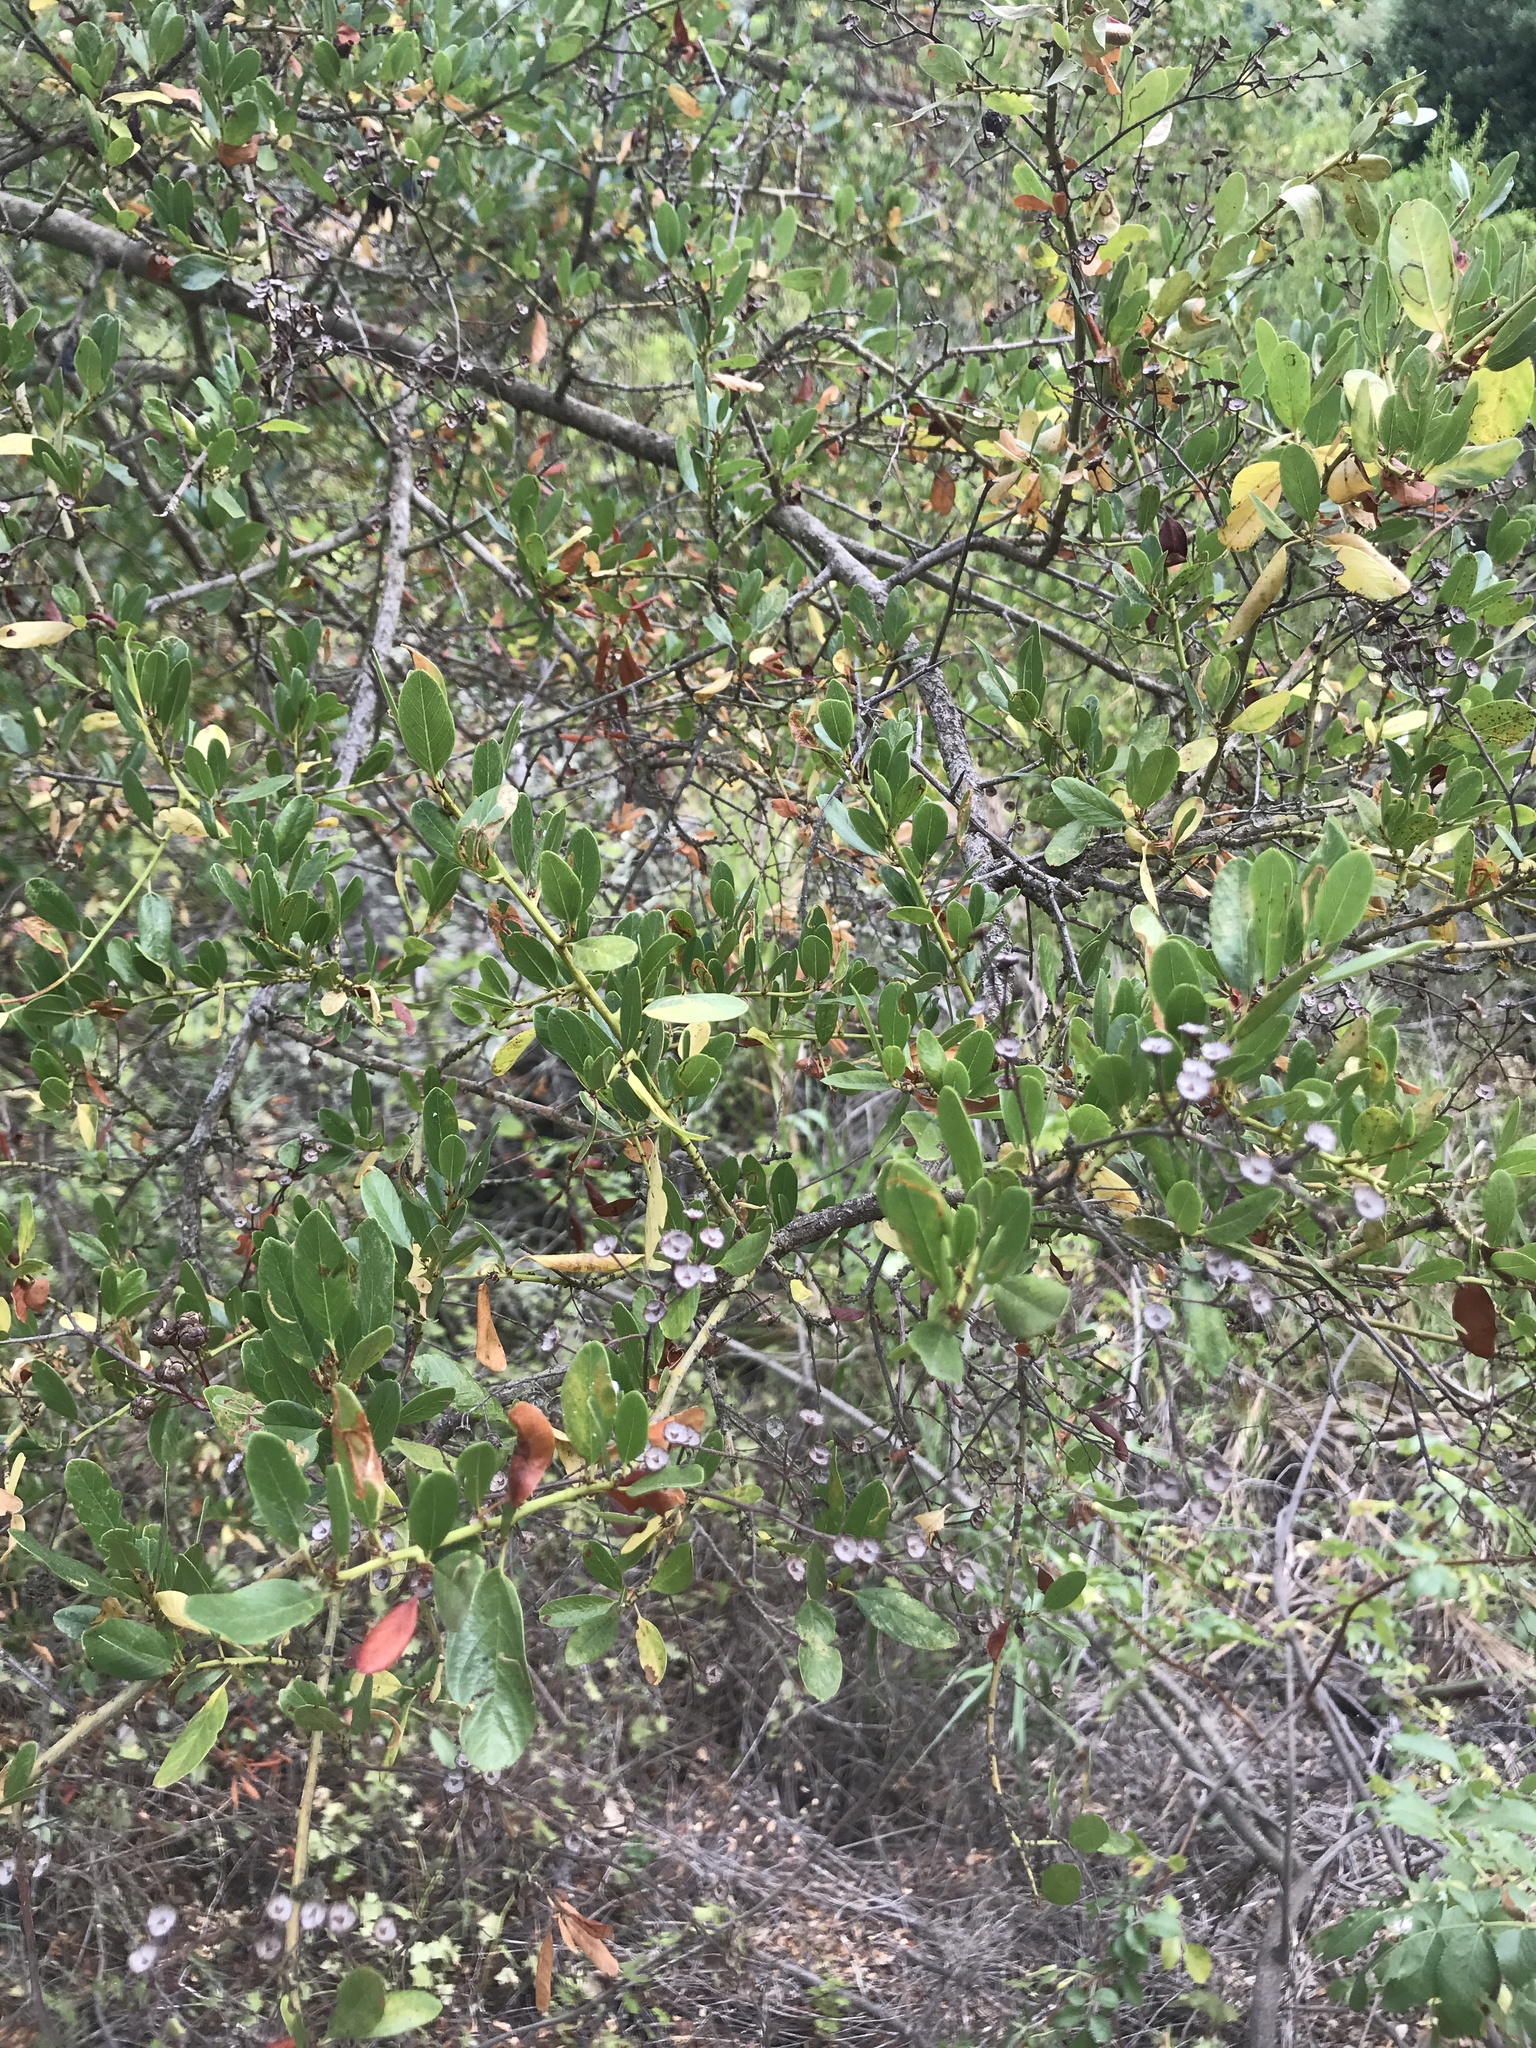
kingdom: Plantae
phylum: Tracheophyta
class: Magnoliopsida
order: Rosales
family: Rhamnaceae
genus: Ceanothus
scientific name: Ceanothus spinosus
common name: Greenbark whitethorn
